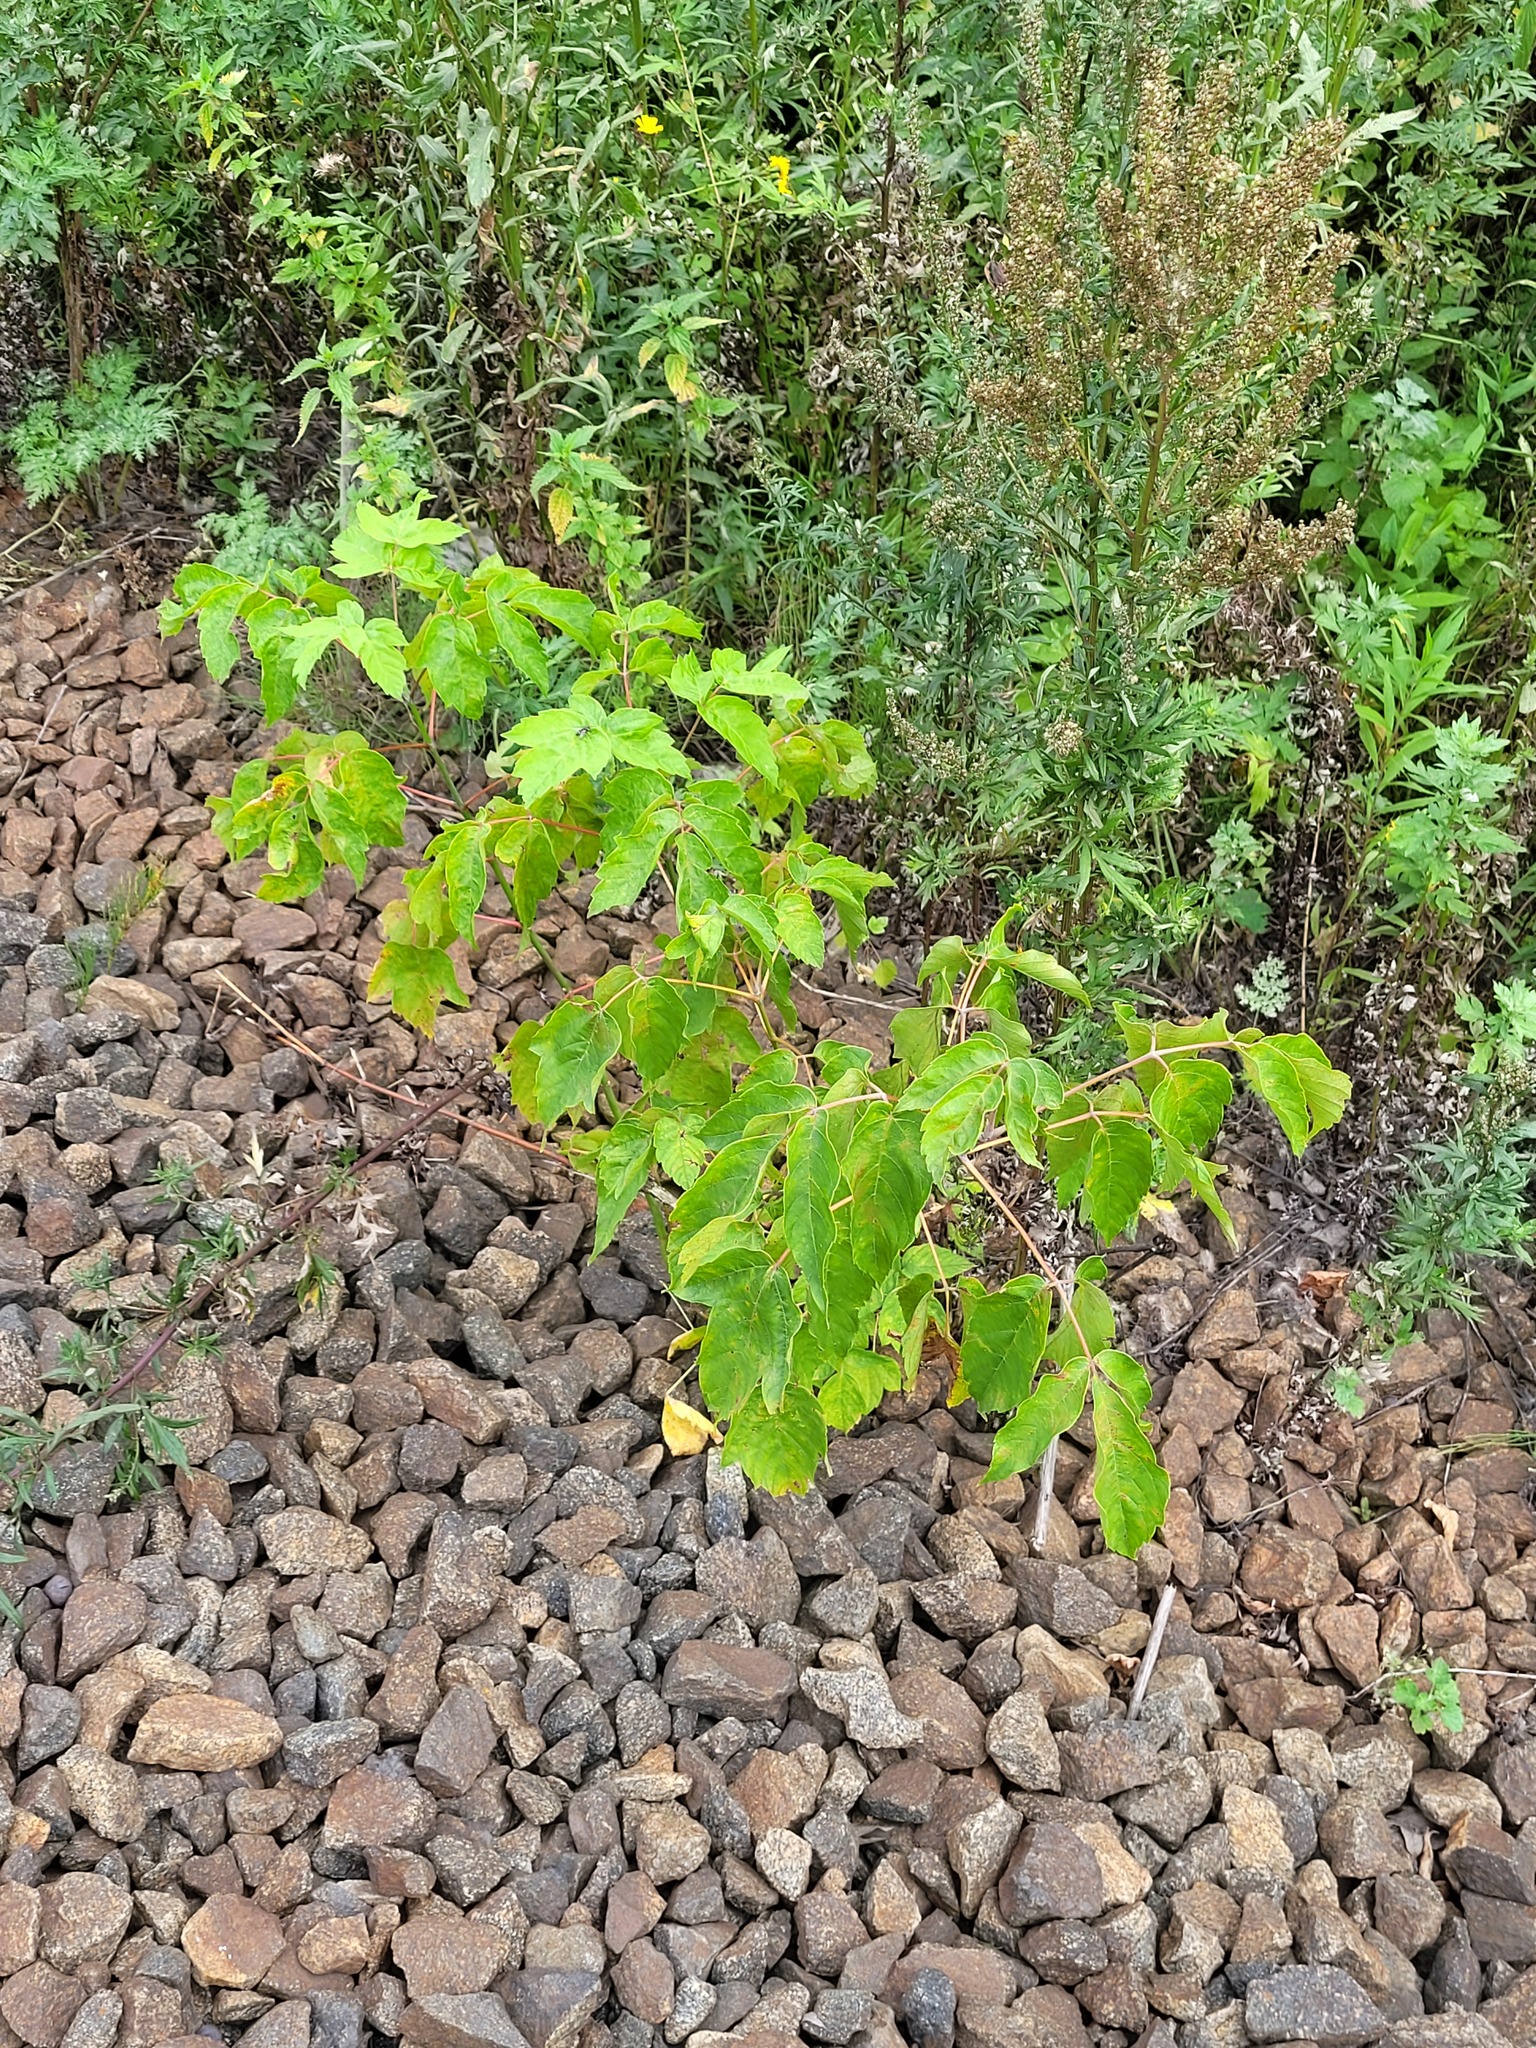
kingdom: Plantae
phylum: Tracheophyta
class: Magnoliopsida
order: Sapindales
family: Sapindaceae
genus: Acer
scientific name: Acer negundo
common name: Ashleaf maple
